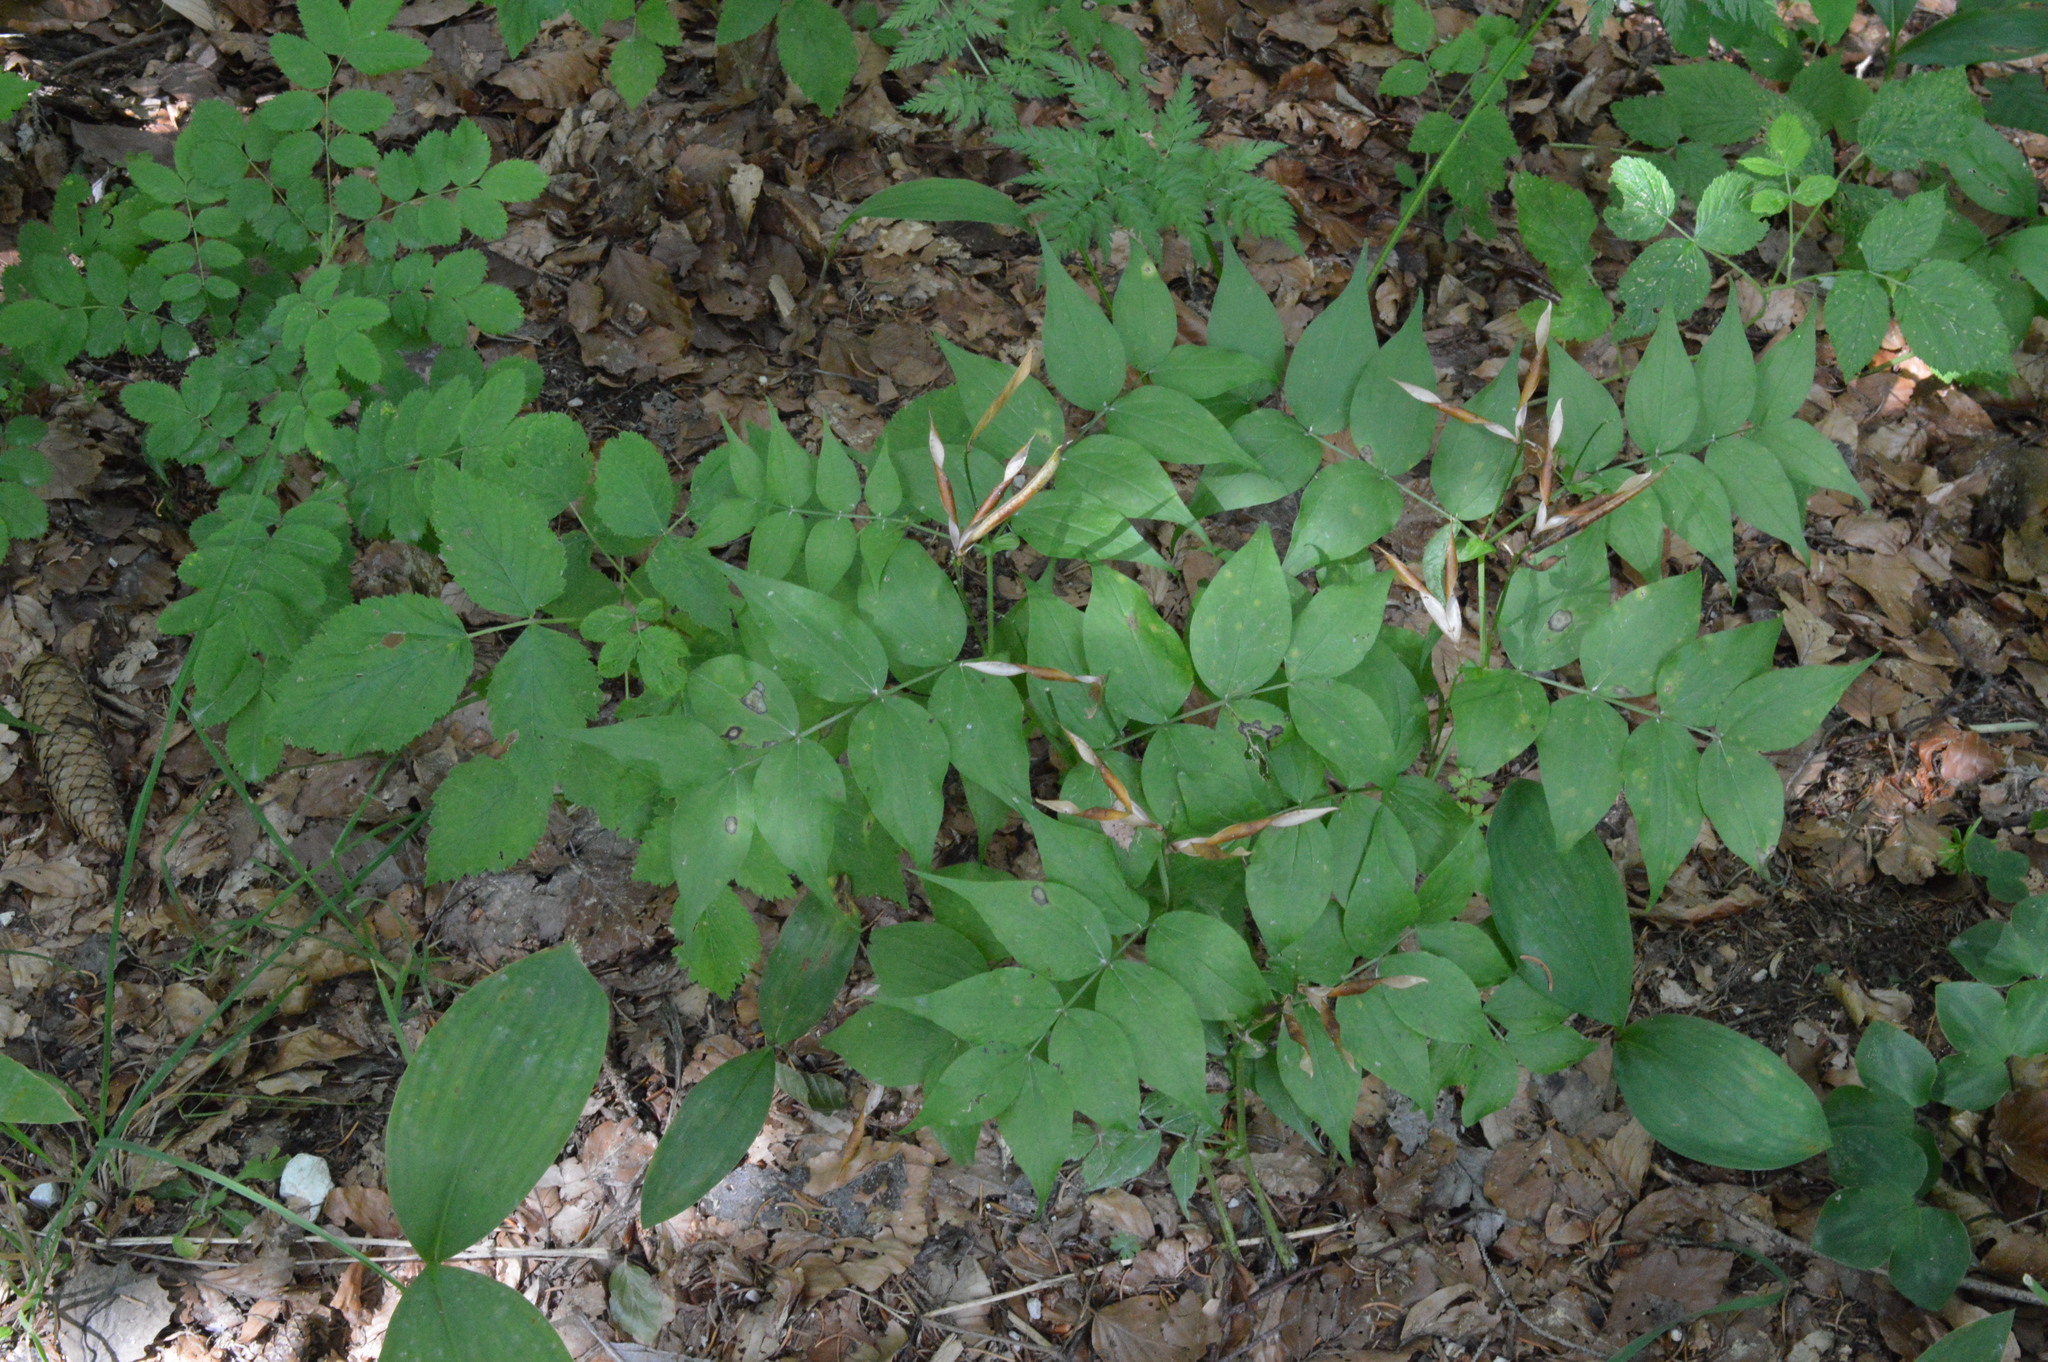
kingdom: Plantae
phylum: Tracheophyta
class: Magnoliopsida
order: Fabales
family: Fabaceae
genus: Lathyrus
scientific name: Lathyrus vernus
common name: Spring pea
